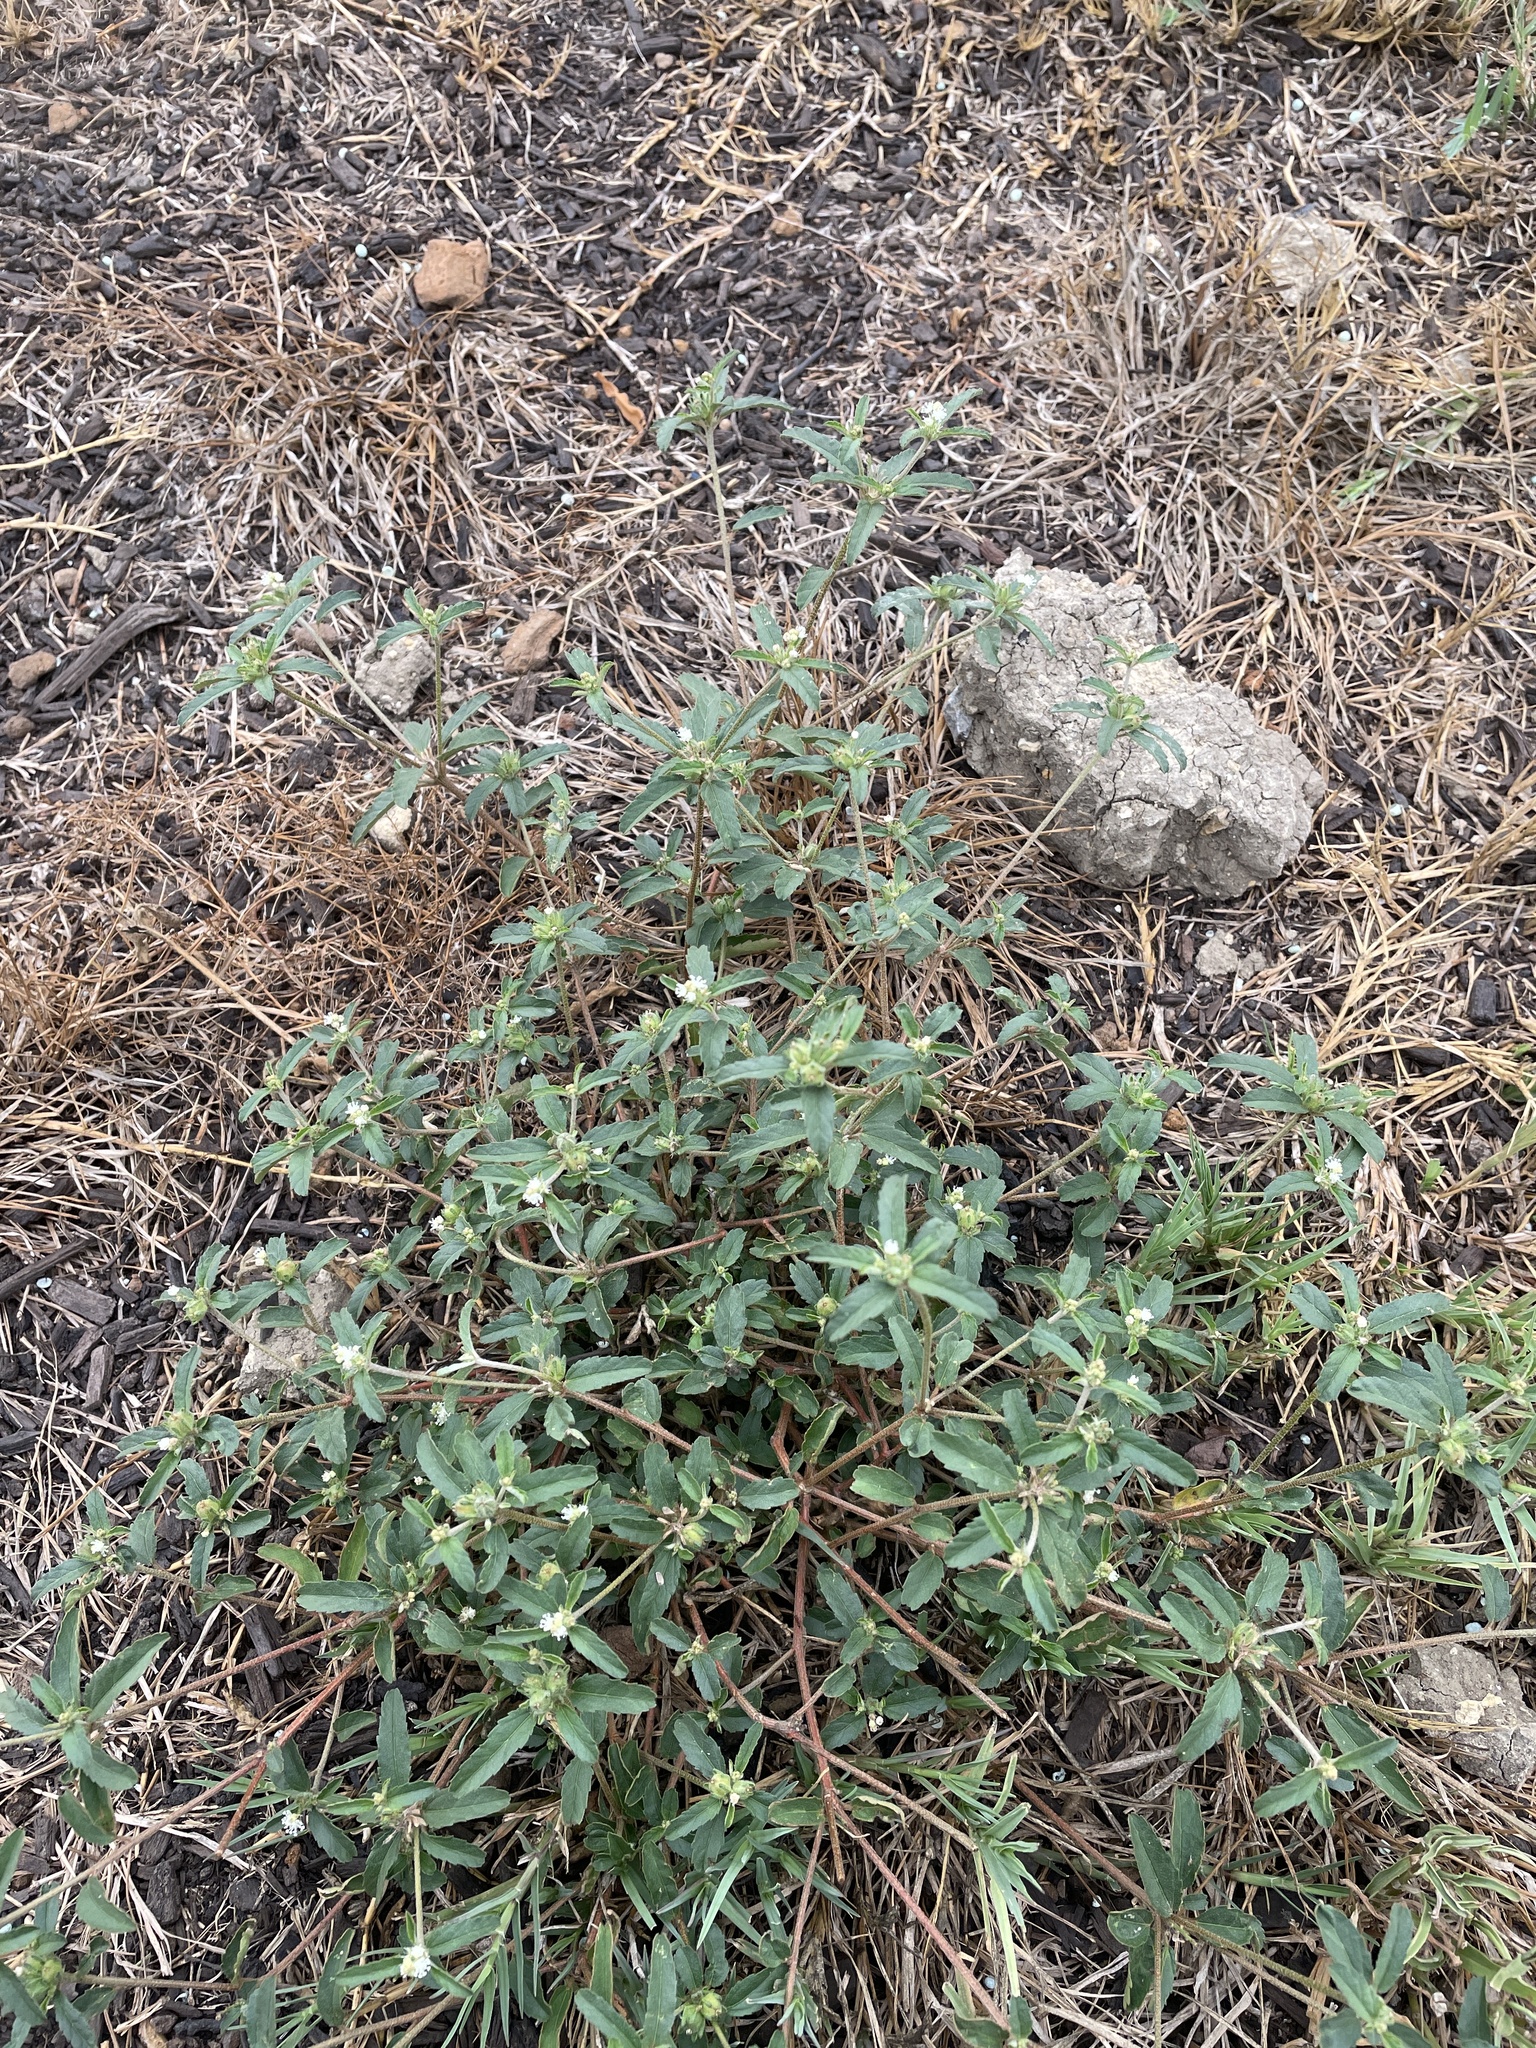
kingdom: Plantae
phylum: Tracheophyta
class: Magnoliopsida
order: Malpighiales
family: Euphorbiaceae
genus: Croton
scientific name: Croton glandulosus
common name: Tropic croton
